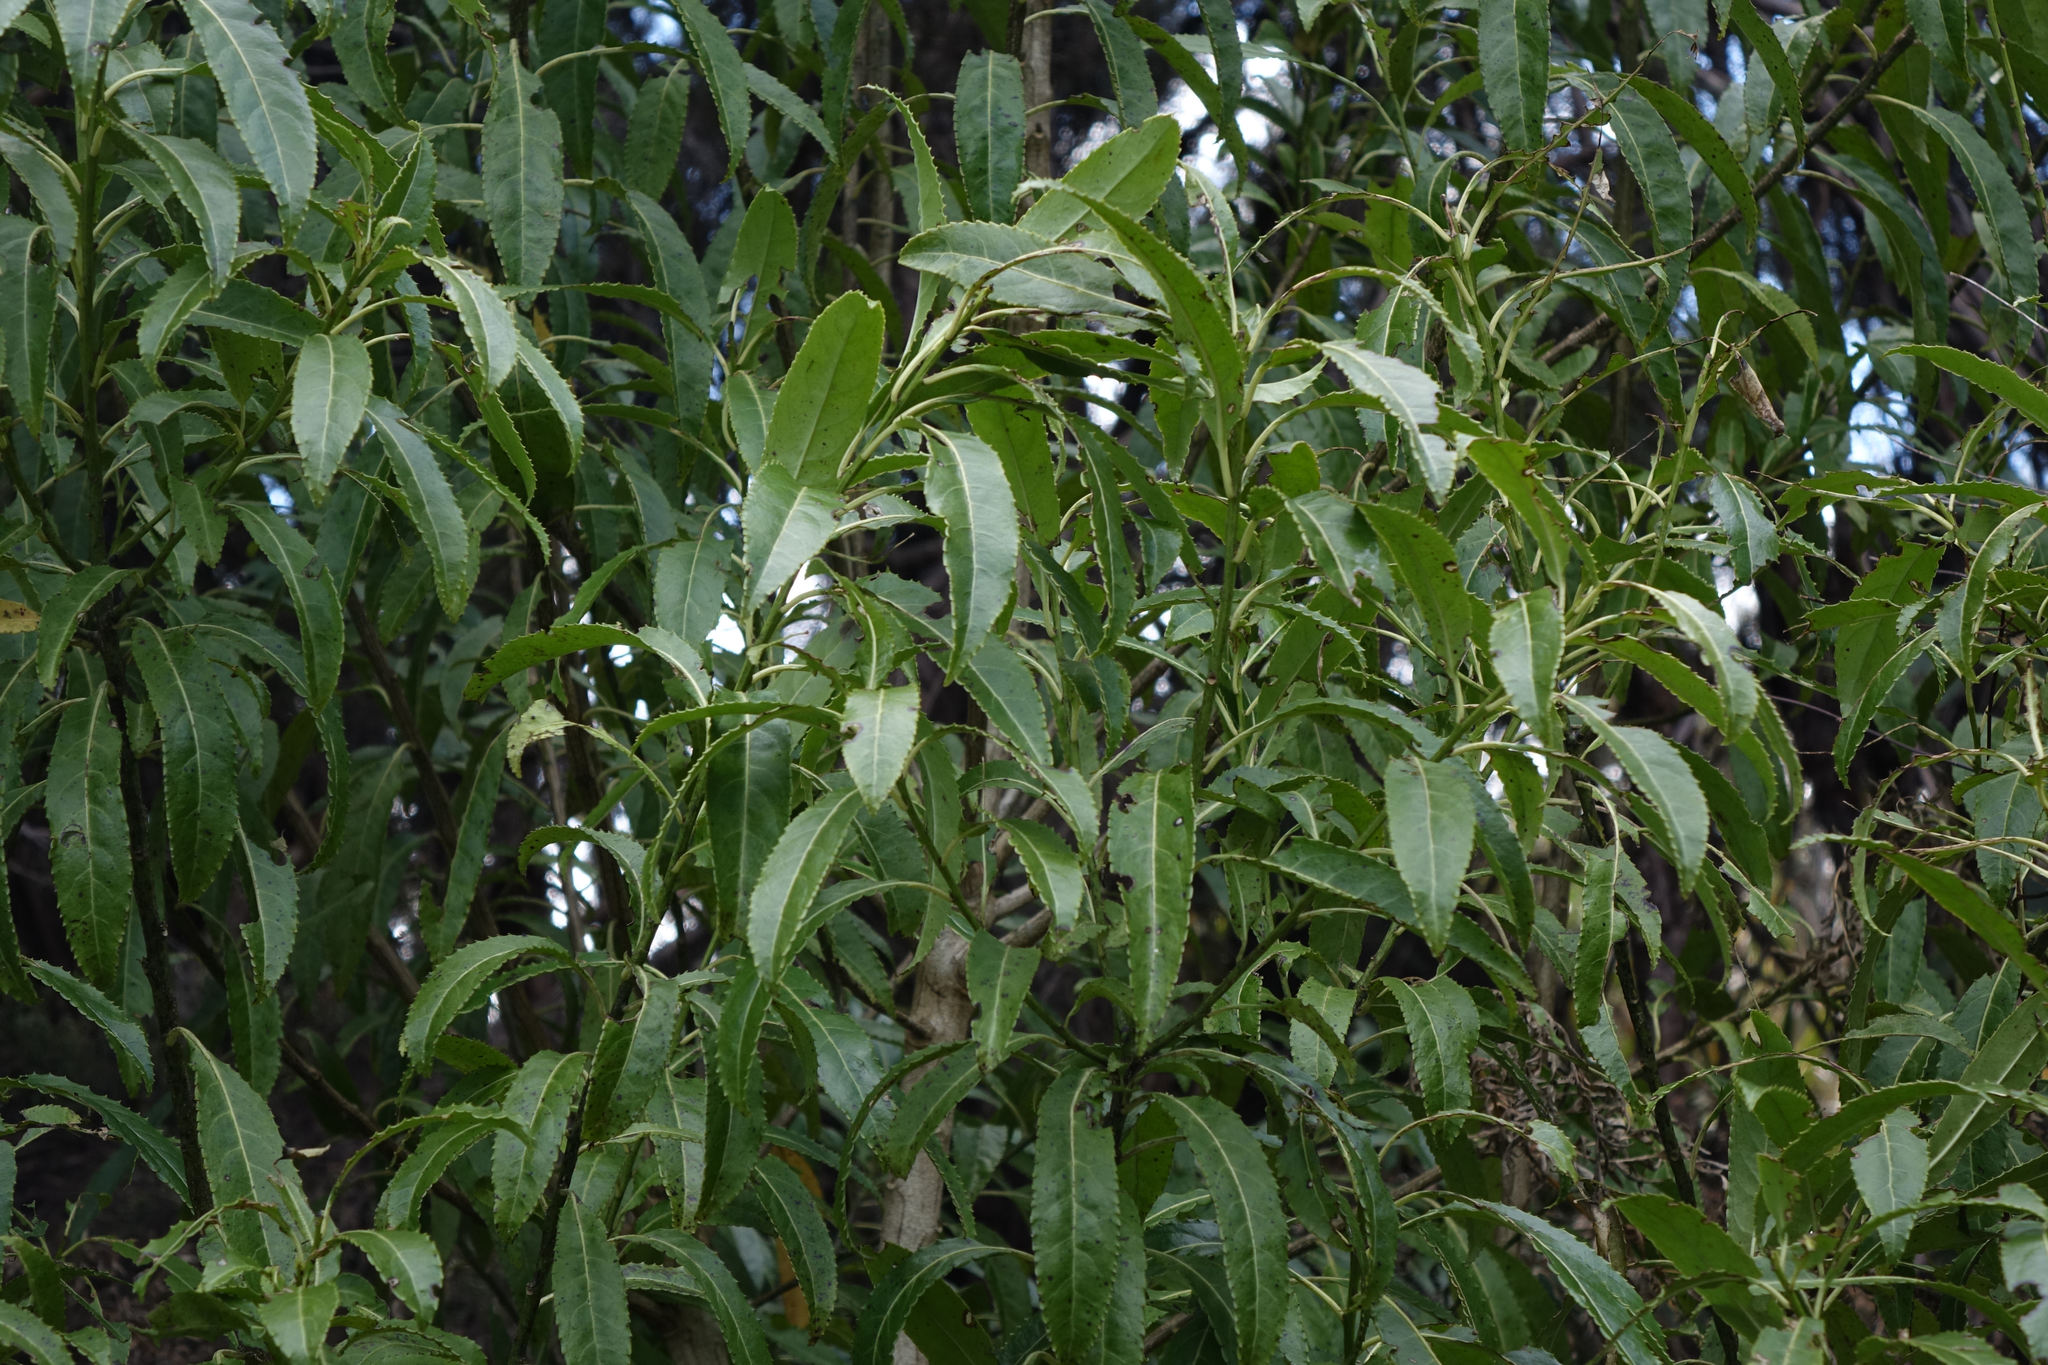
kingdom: Plantae
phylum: Tracheophyta
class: Magnoliopsida
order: Malpighiales
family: Violaceae
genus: Melicytus
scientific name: Melicytus lanceolatus
